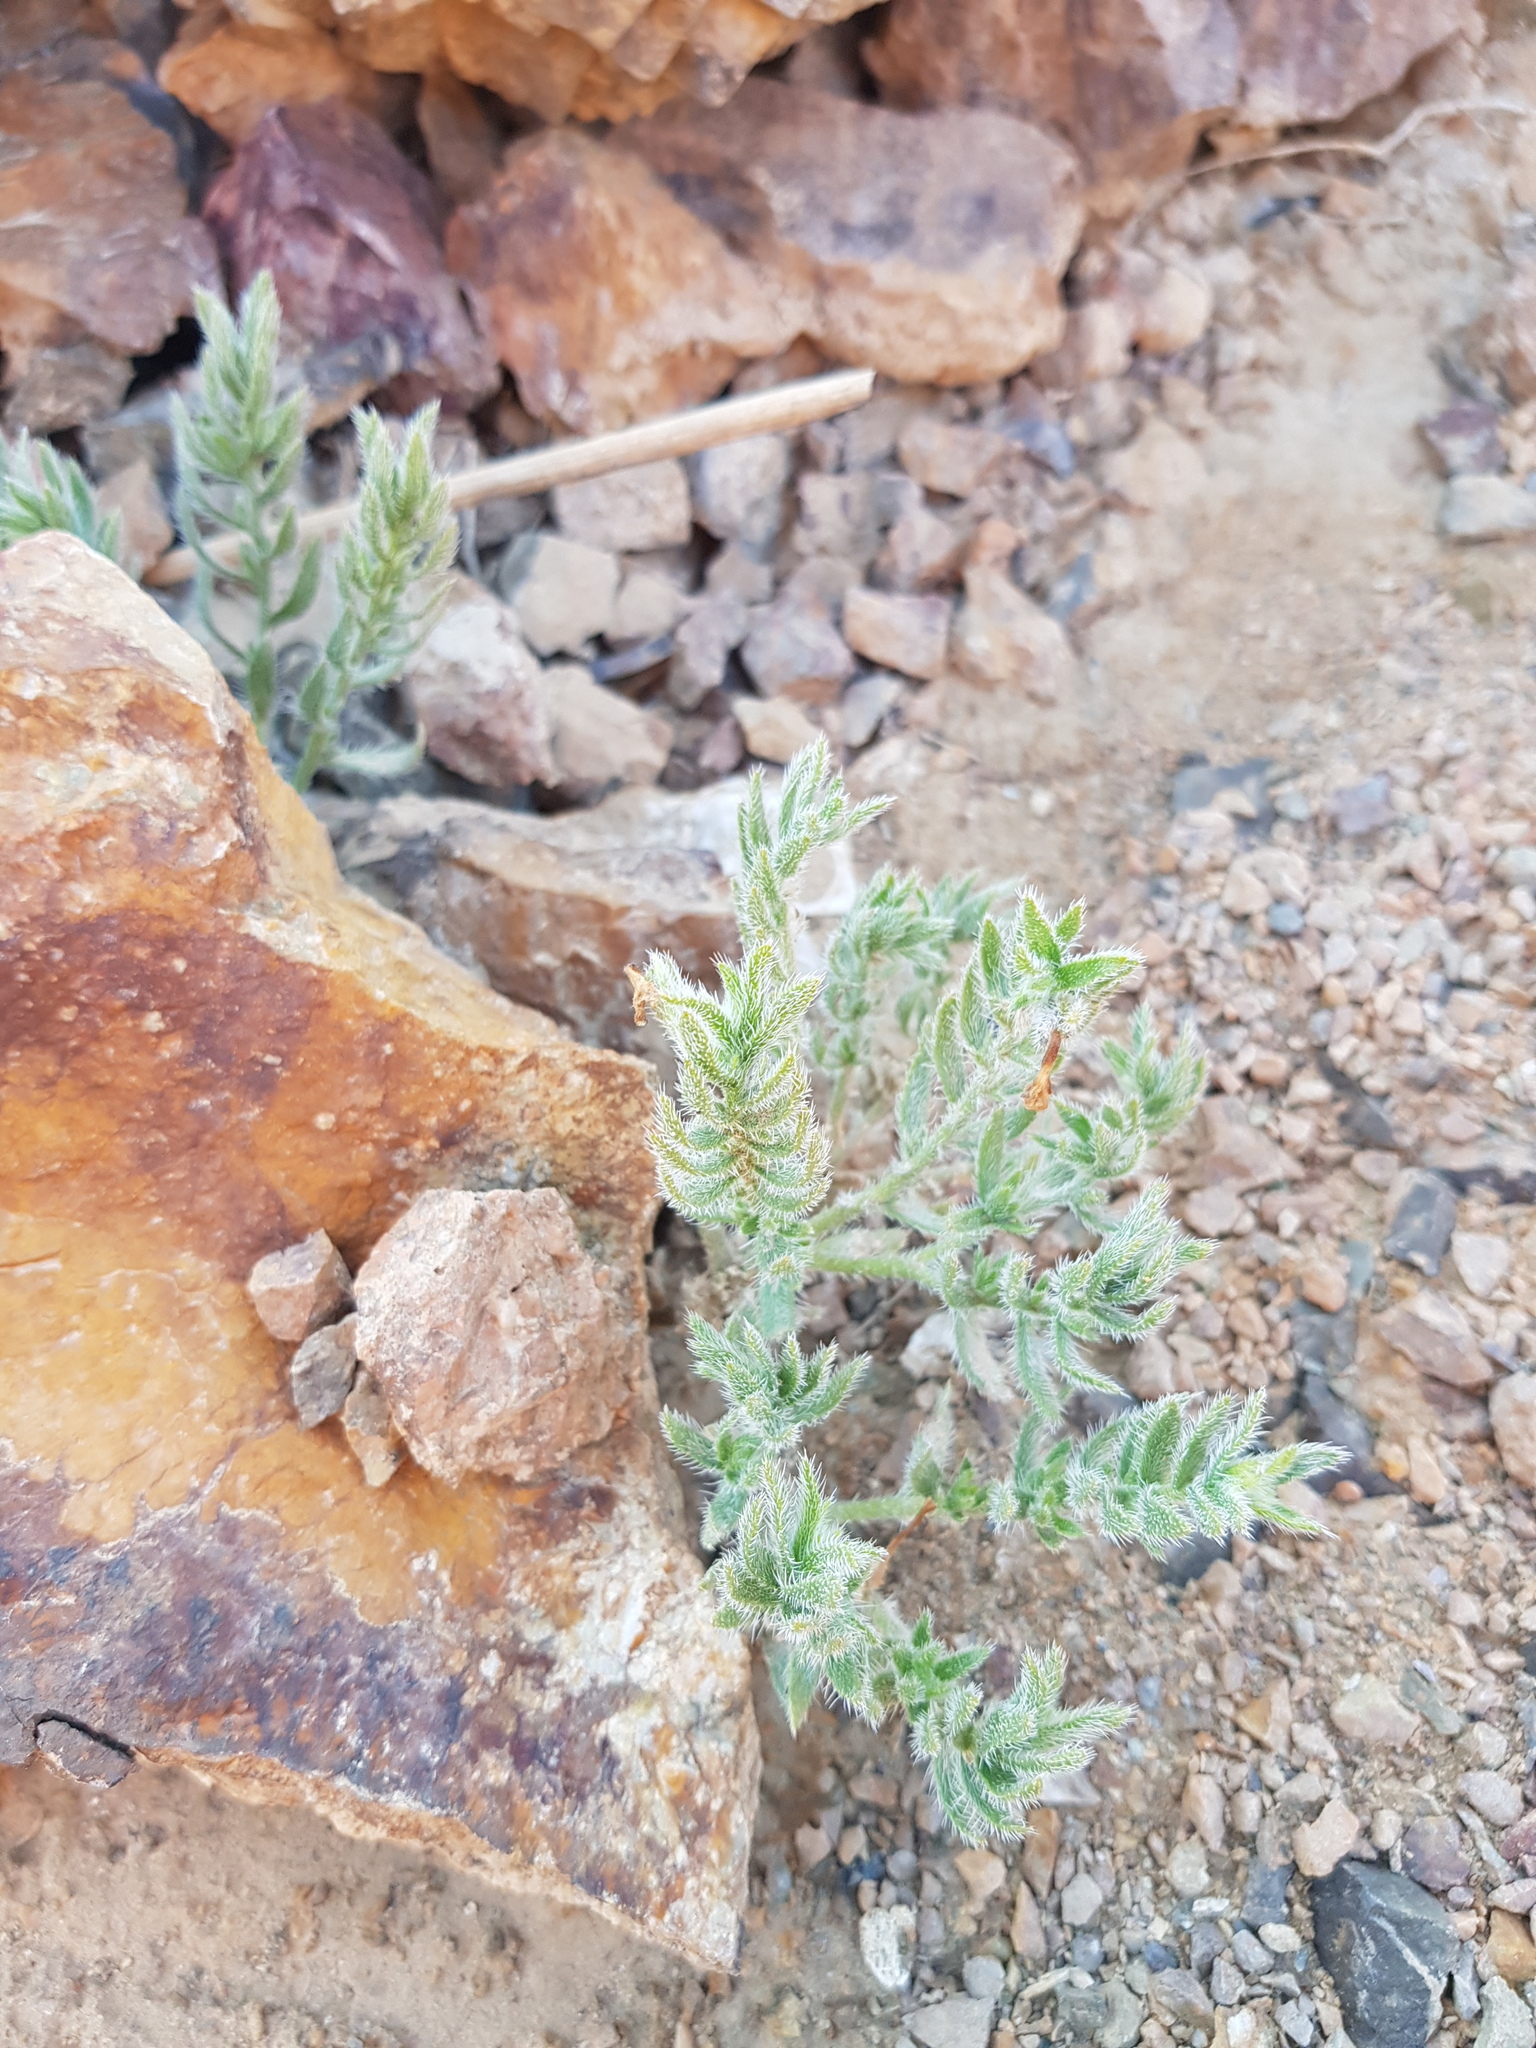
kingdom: Plantae
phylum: Tracheophyta
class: Magnoliopsida
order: Boraginales
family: Boraginaceae
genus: Arnebia
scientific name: Arnebia fimbriata
